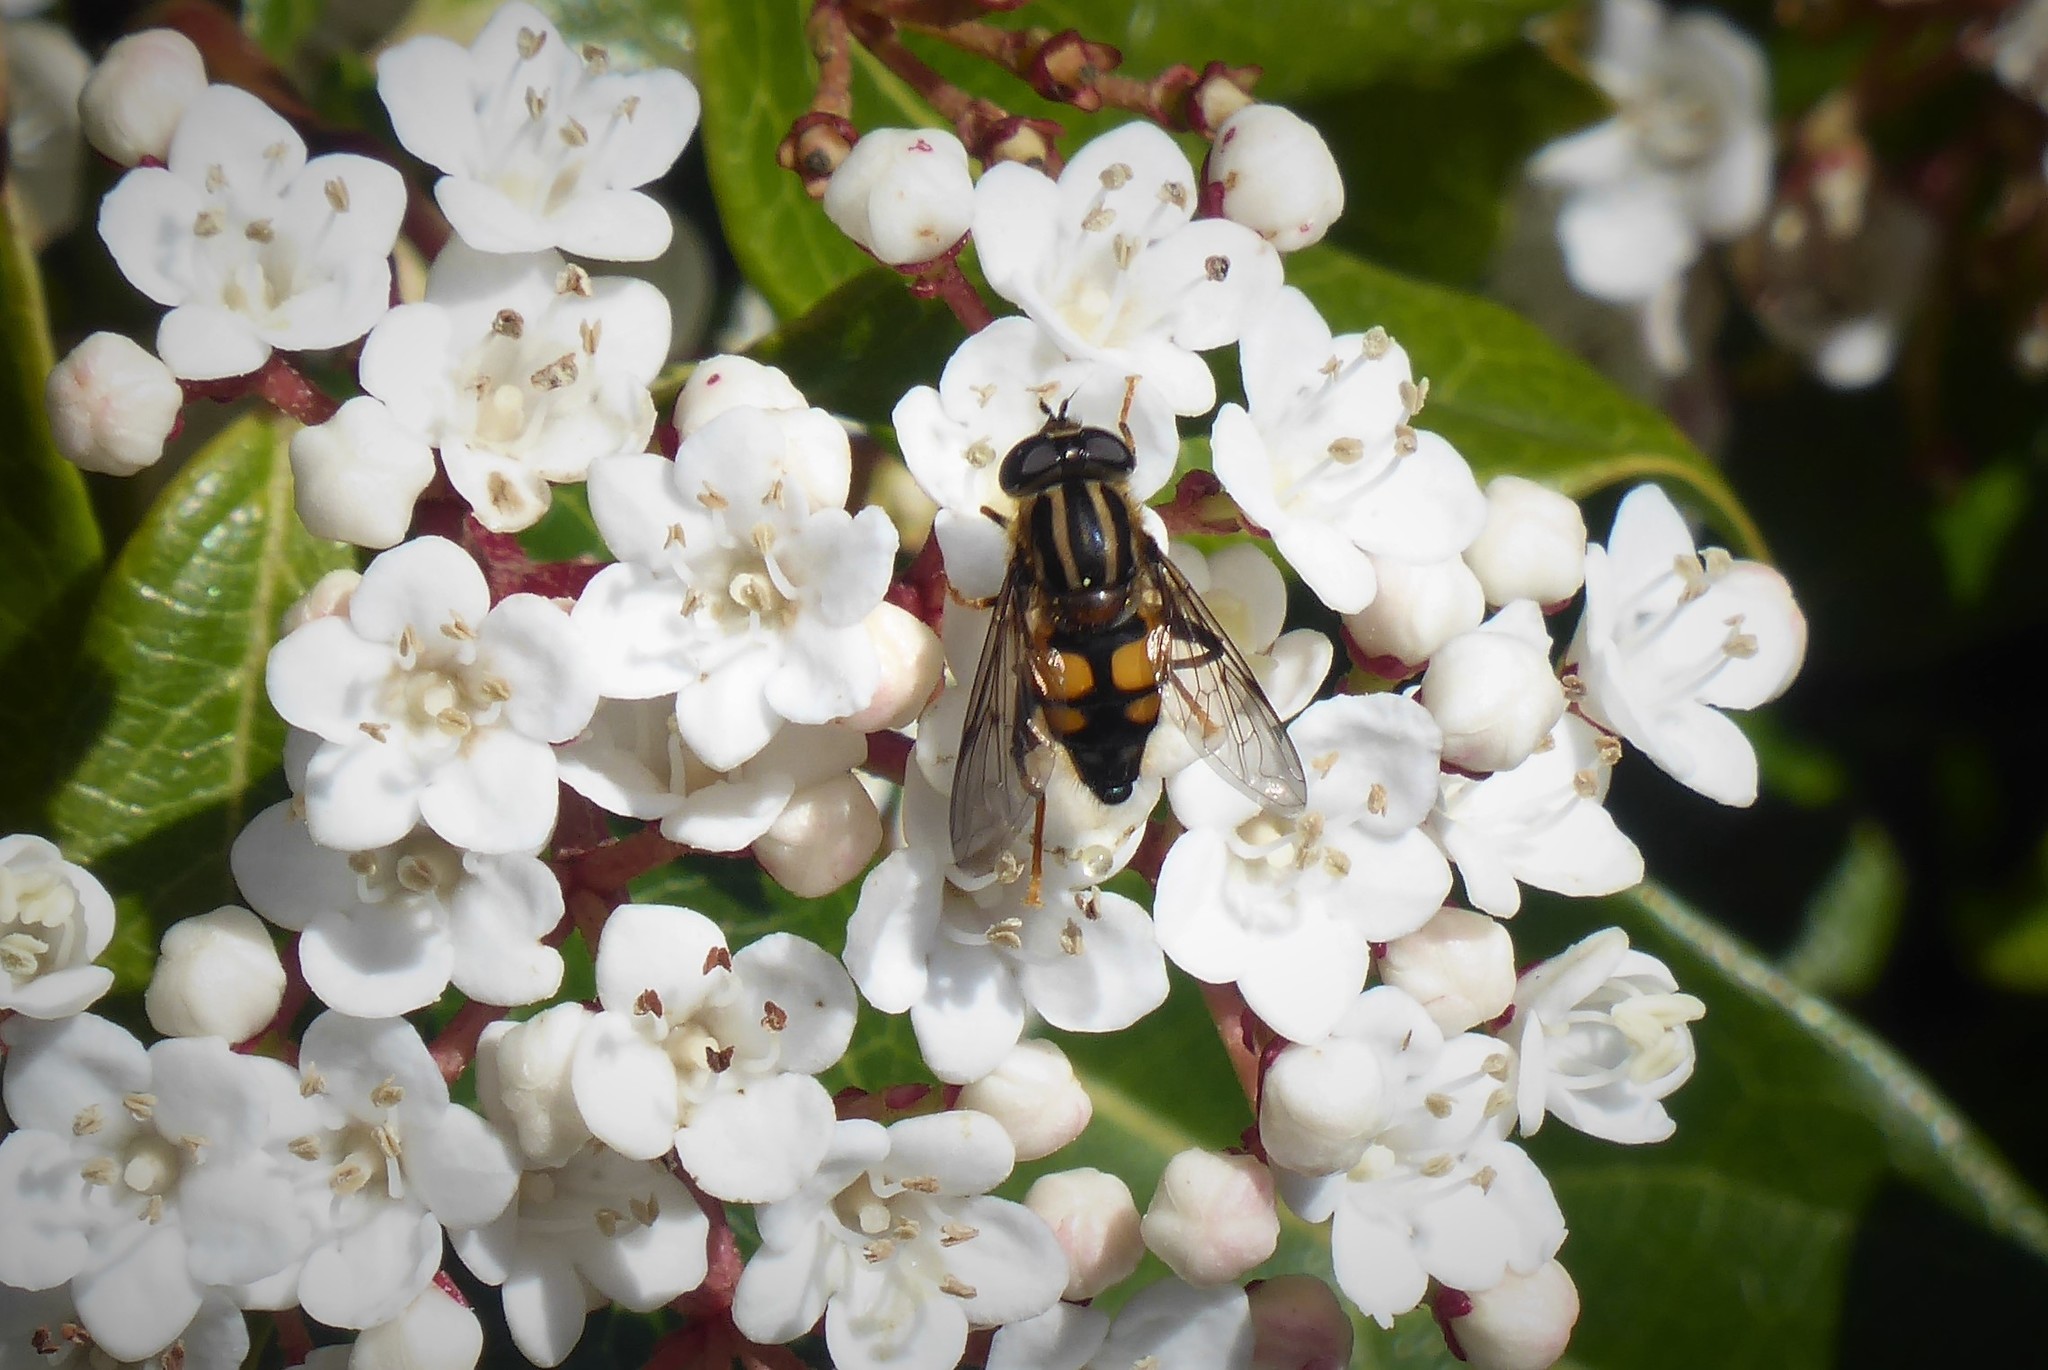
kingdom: Animalia
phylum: Arthropoda
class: Insecta
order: Diptera
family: Syrphidae
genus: Helophilus
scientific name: Helophilus antipodus
